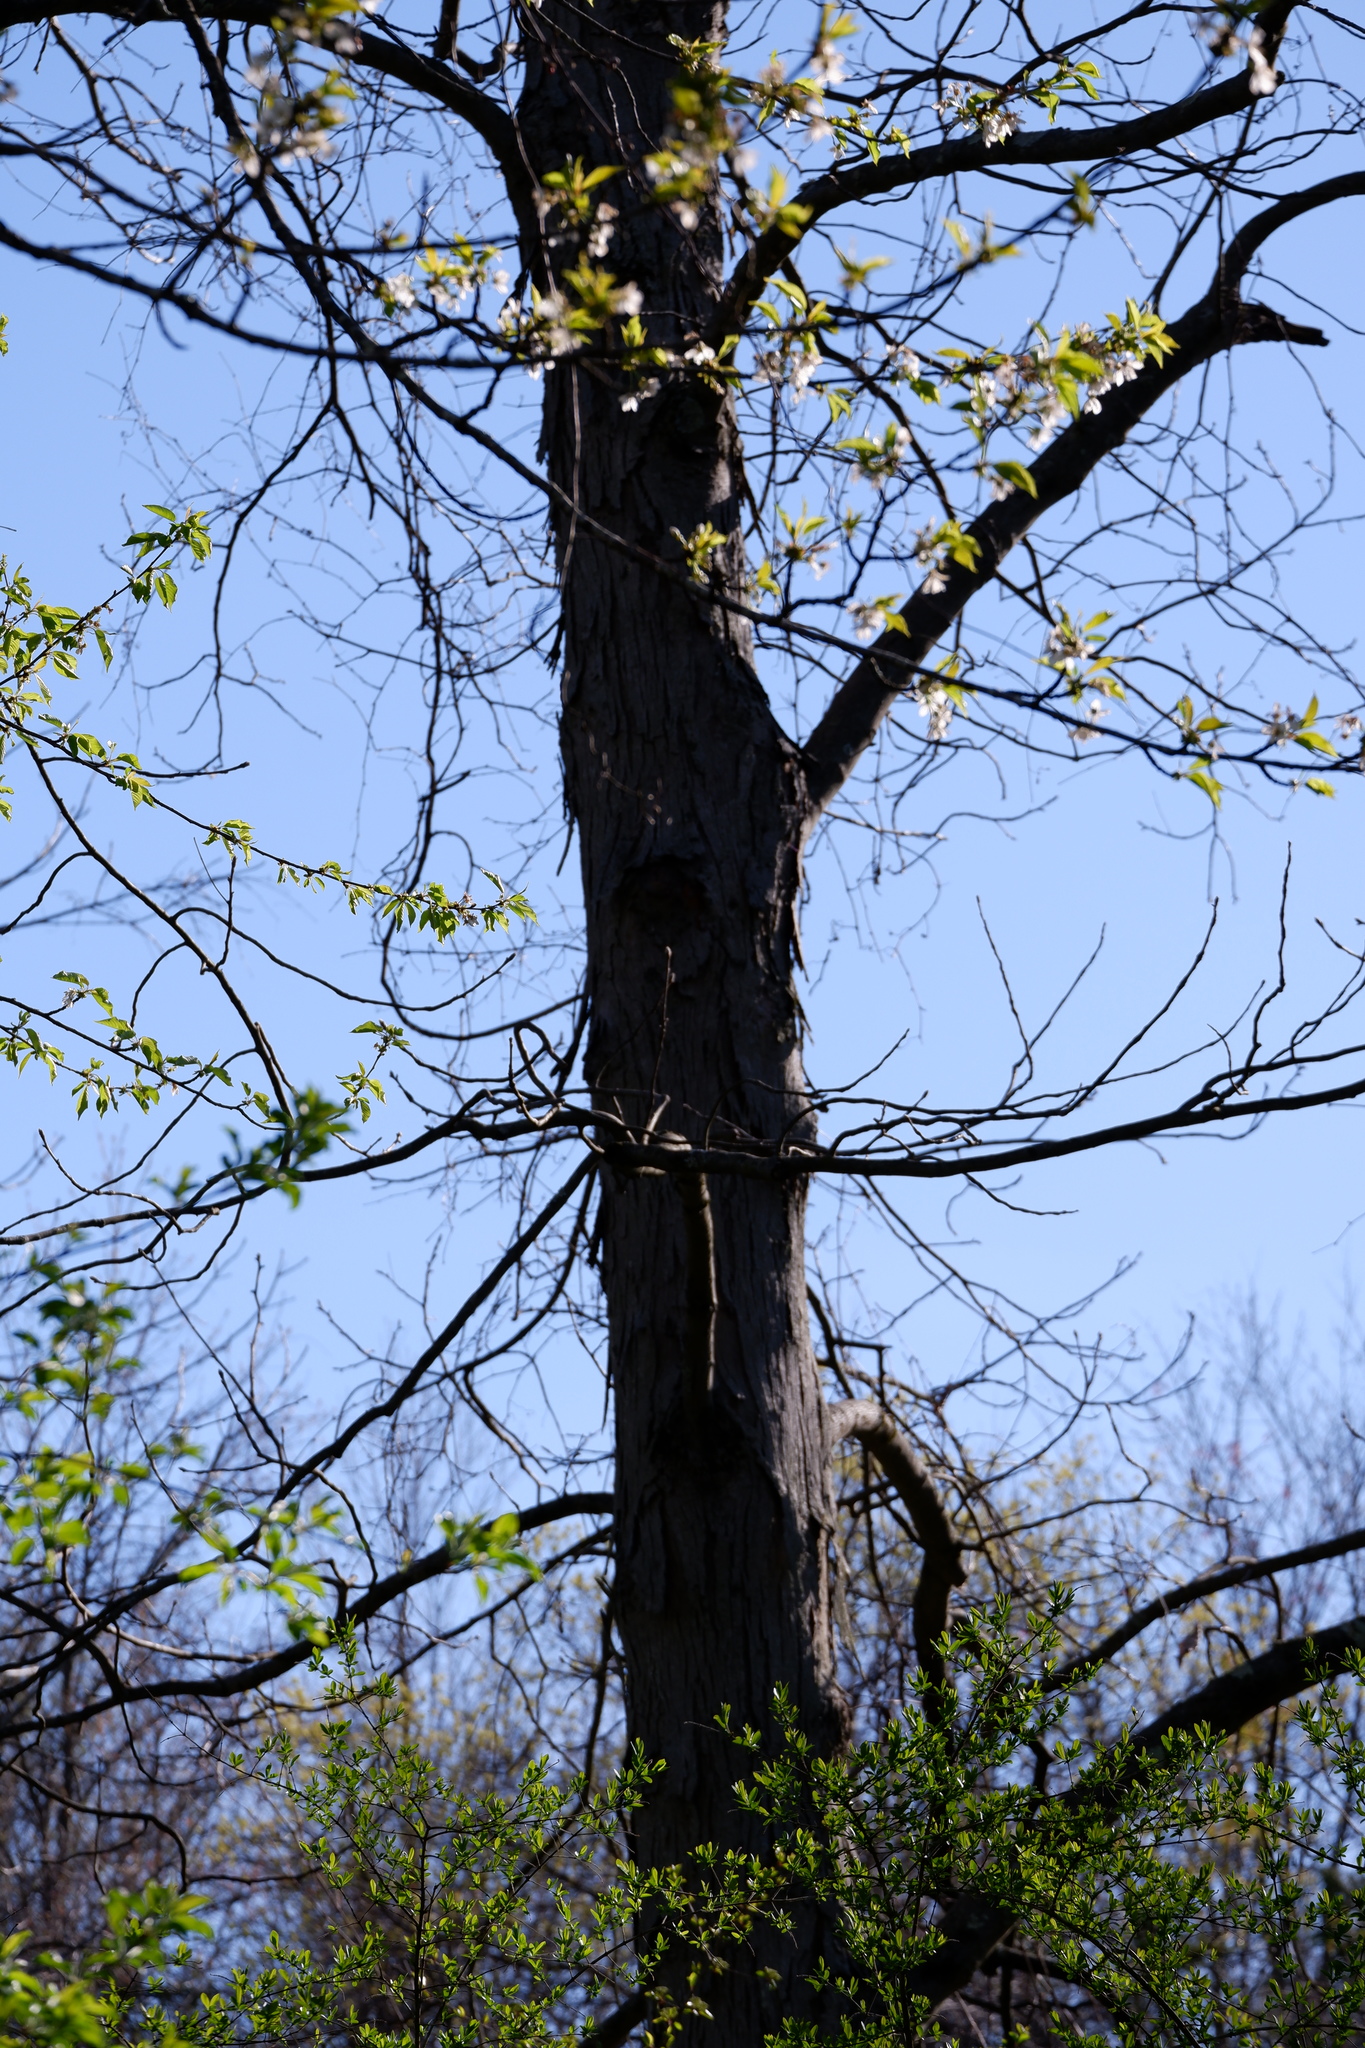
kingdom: Plantae
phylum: Tracheophyta
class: Magnoliopsida
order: Fagales
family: Juglandaceae
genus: Carya
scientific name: Carya ovata
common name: Shagbark hickory
